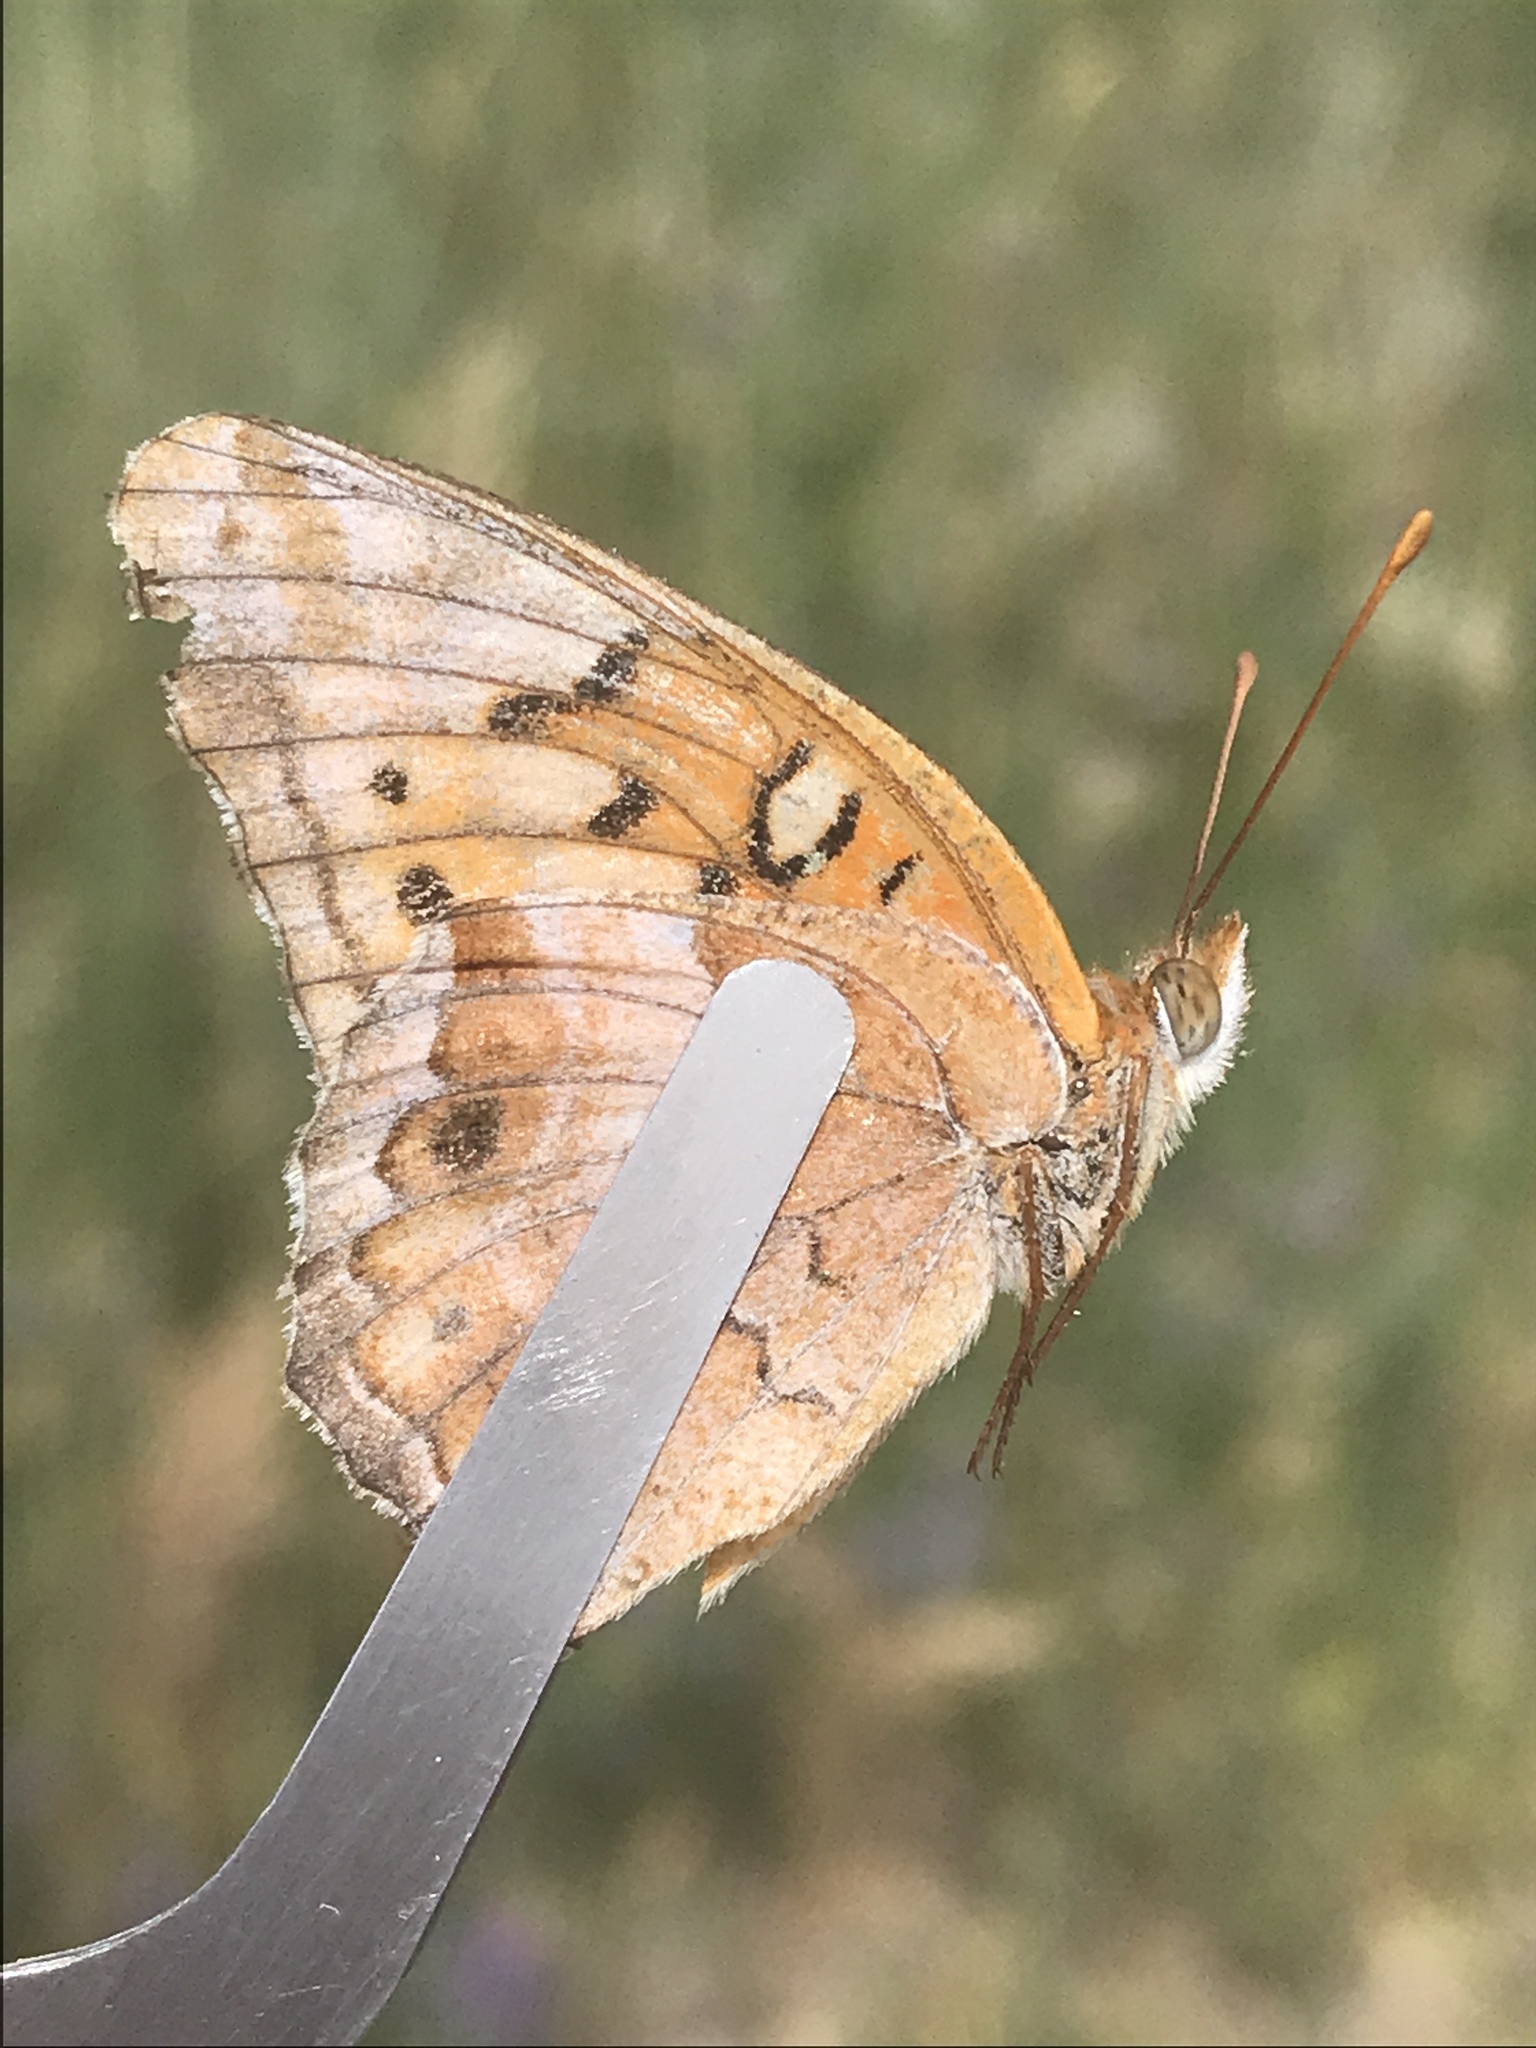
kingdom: Animalia
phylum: Arthropoda
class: Insecta
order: Lepidoptera
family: Nymphalidae
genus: Euptoieta
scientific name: Euptoieta claudia
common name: Variegated fritillary
